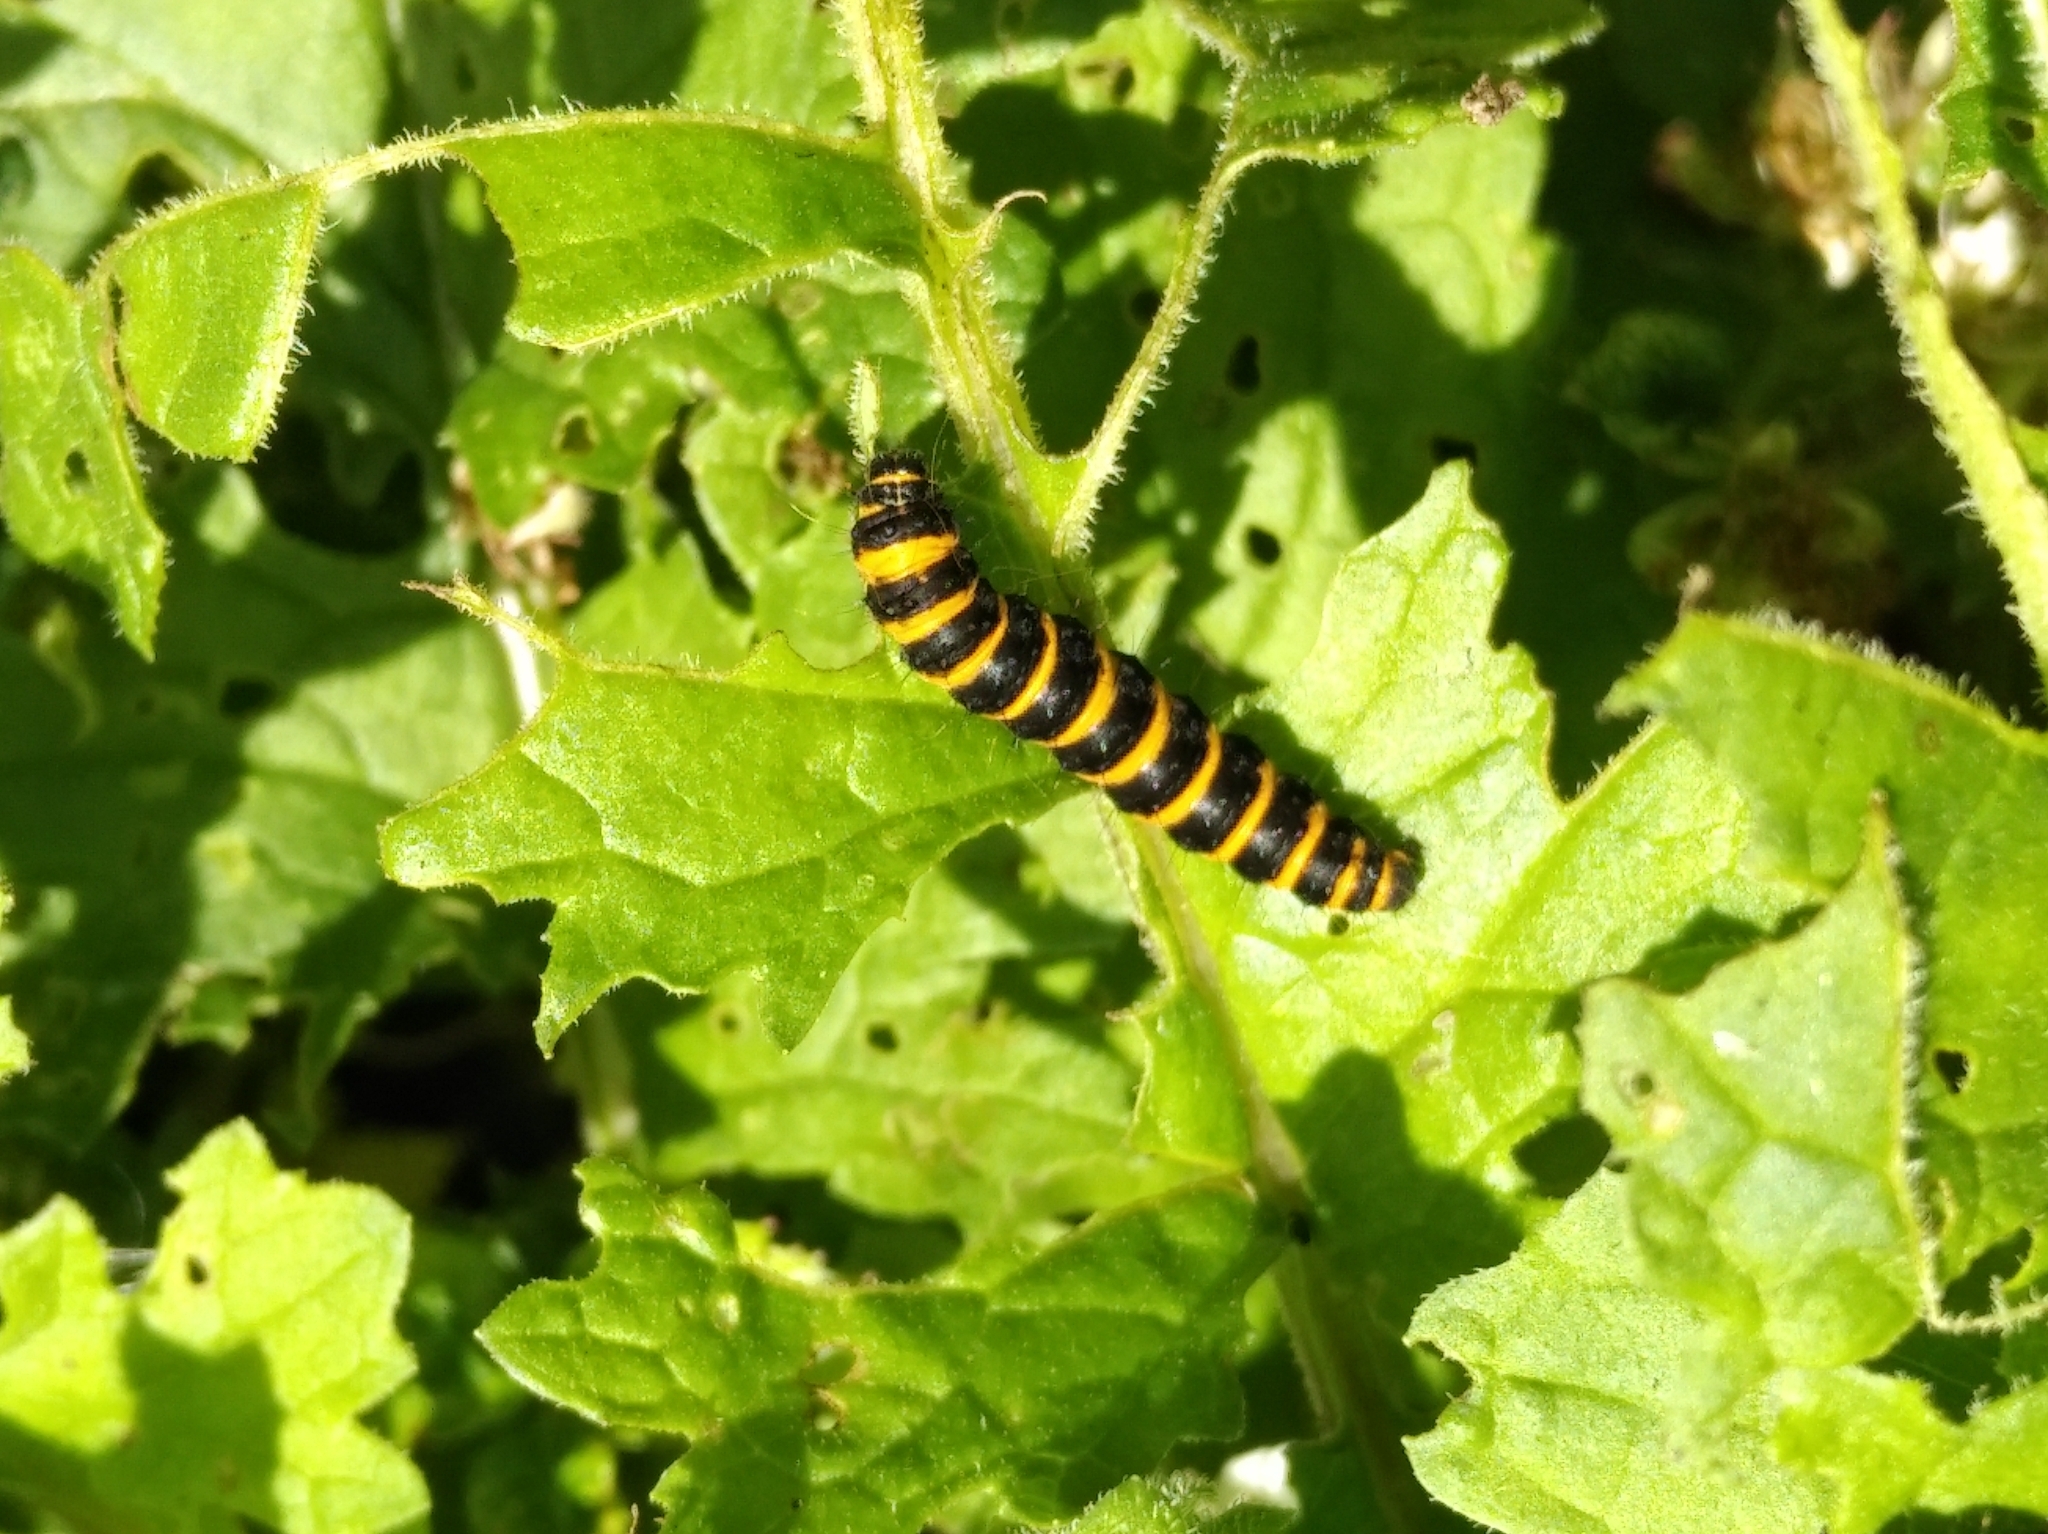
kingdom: Animalia
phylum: Arthropoda
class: Insecta
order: Lepidoptera
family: Erebidae
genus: Tyria
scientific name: Tyria jacobaeae
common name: Cinnabar
